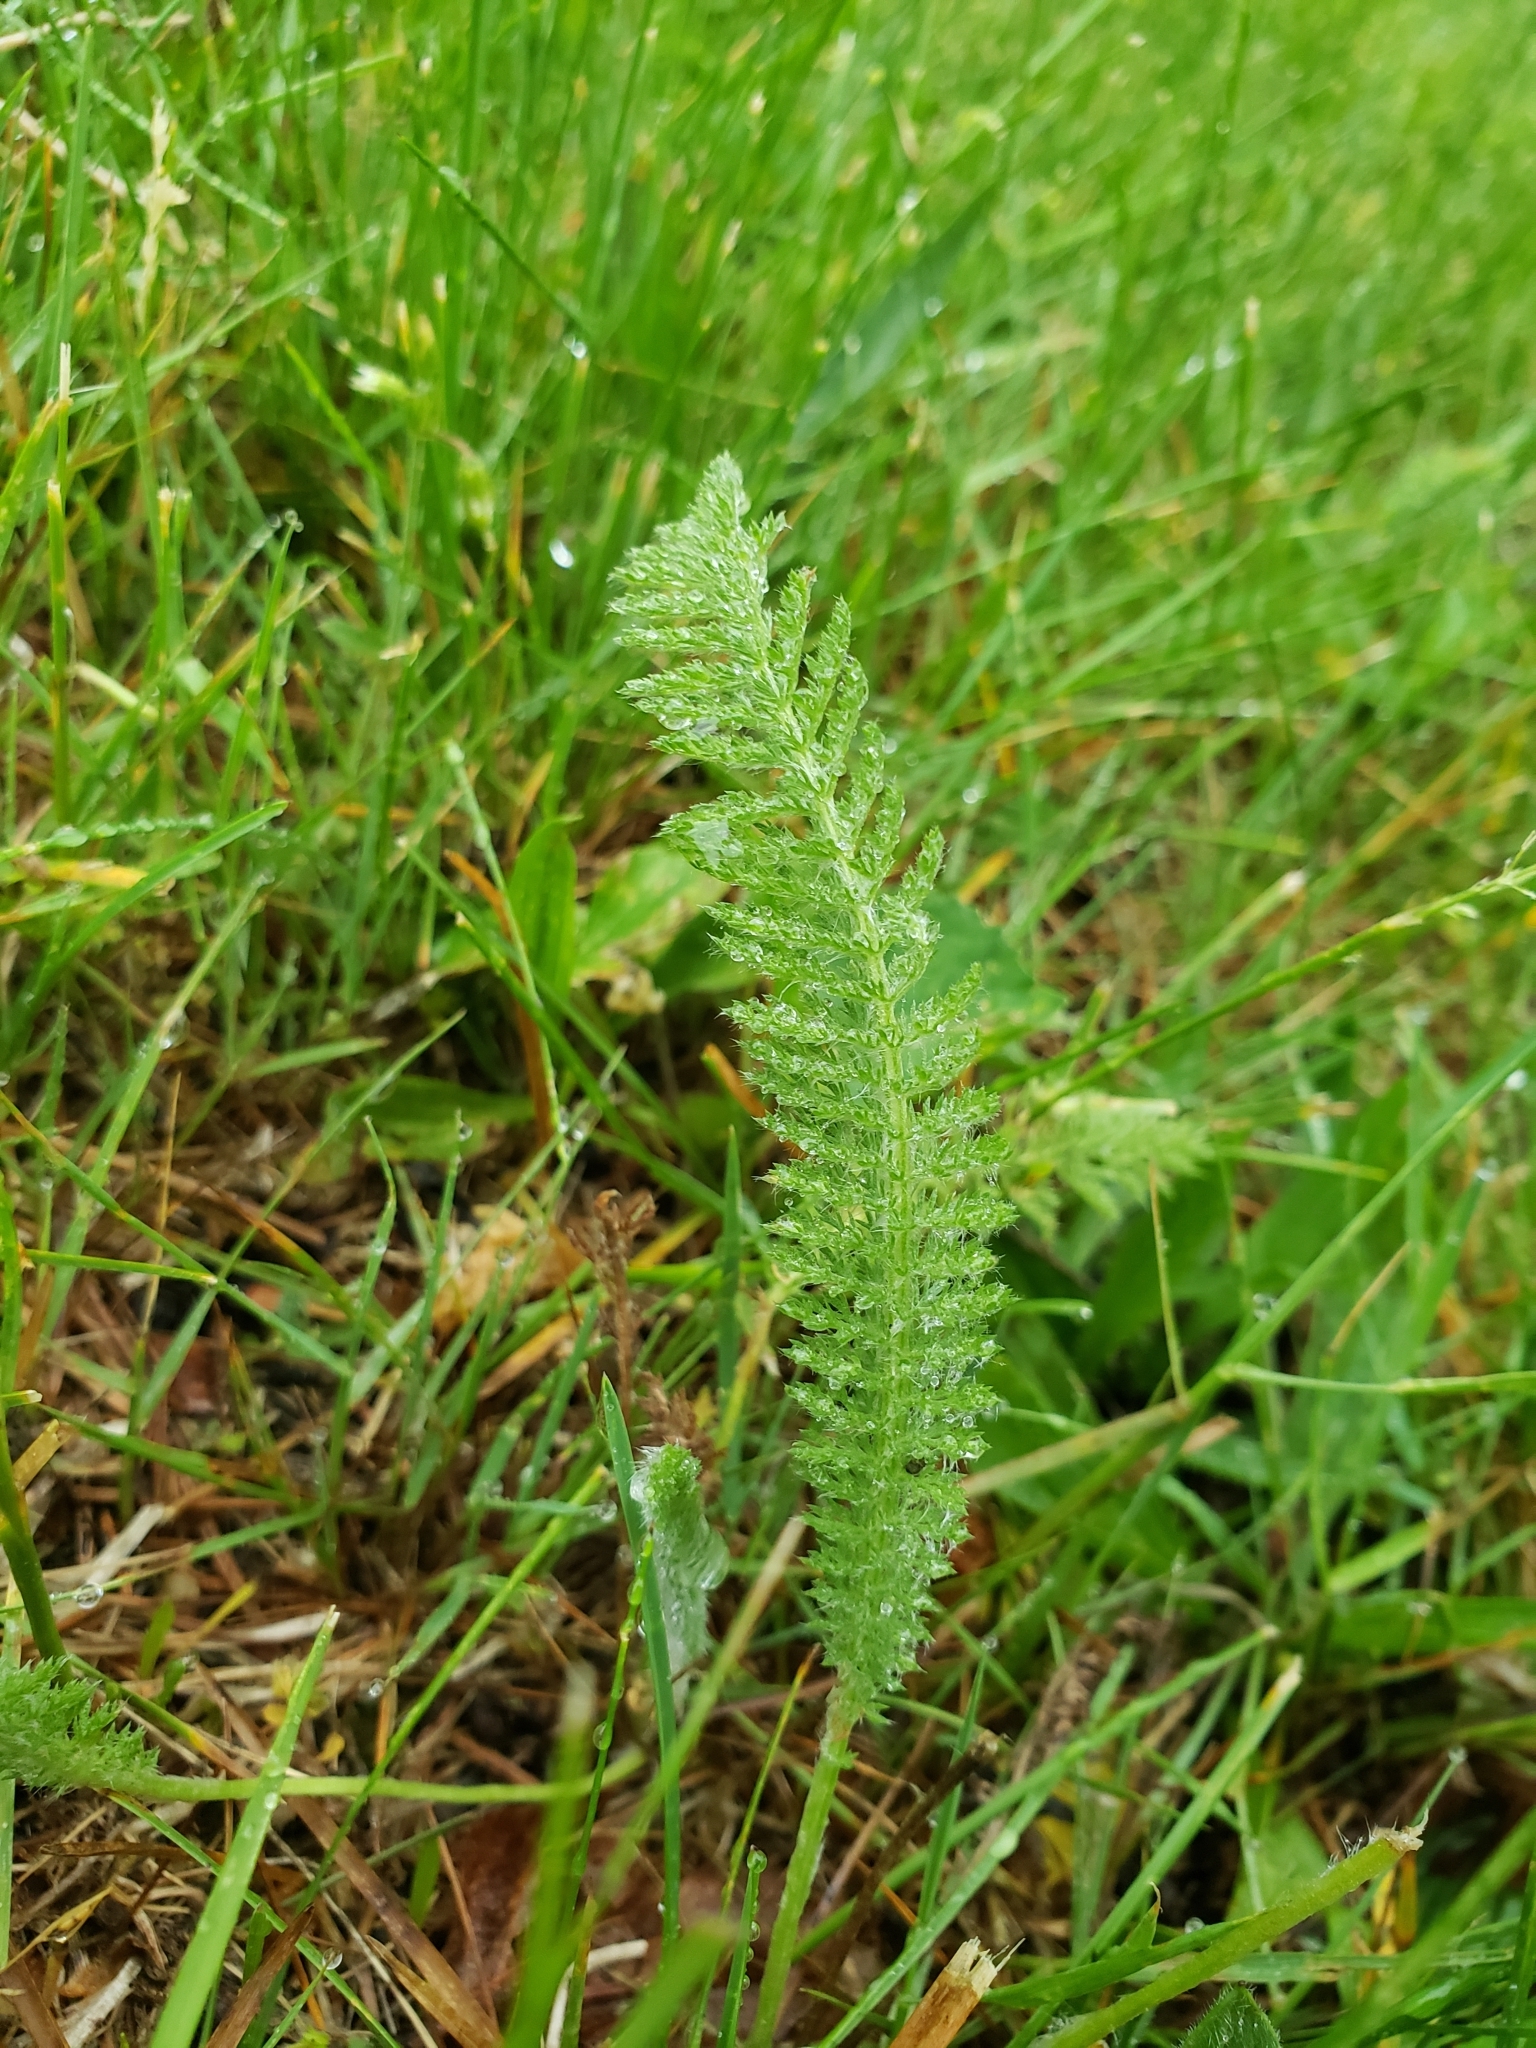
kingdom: Plantae
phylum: Tracheophyta
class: Magnoliopsida
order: Asterales
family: Asteraceae
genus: Achillea
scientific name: Achillea millefolium
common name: Yarrow
